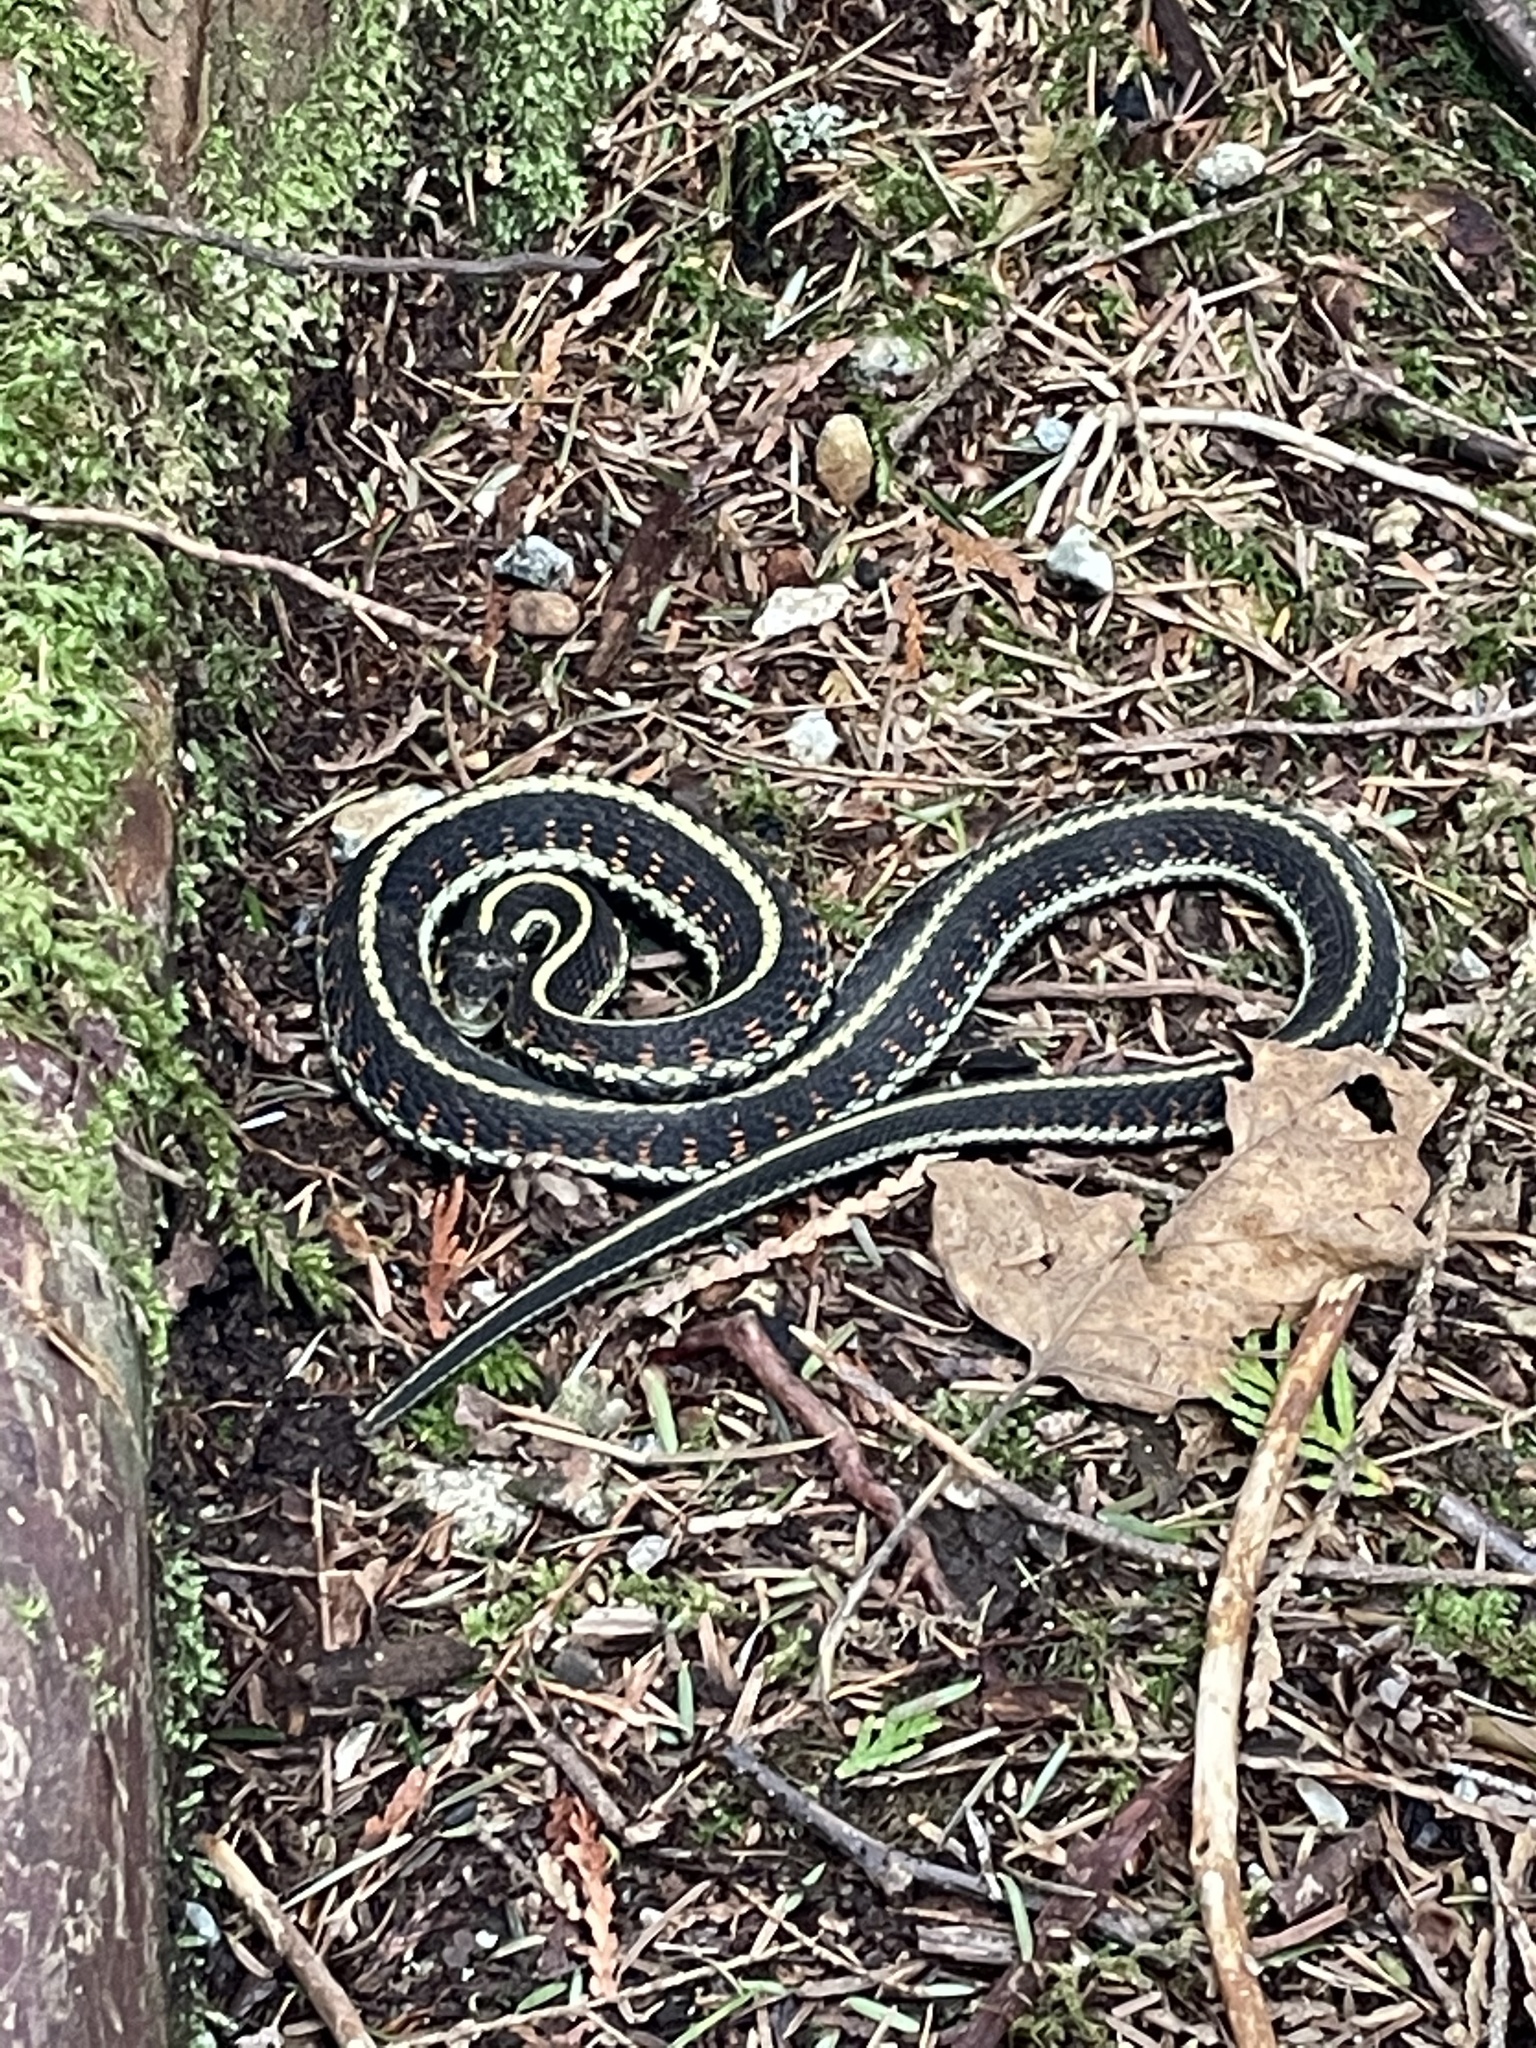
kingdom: Animalia
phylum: Chordata
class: Squamata
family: Colubridae
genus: Thamnophis
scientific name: Thamnophis sirtalis
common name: Common garter snake
